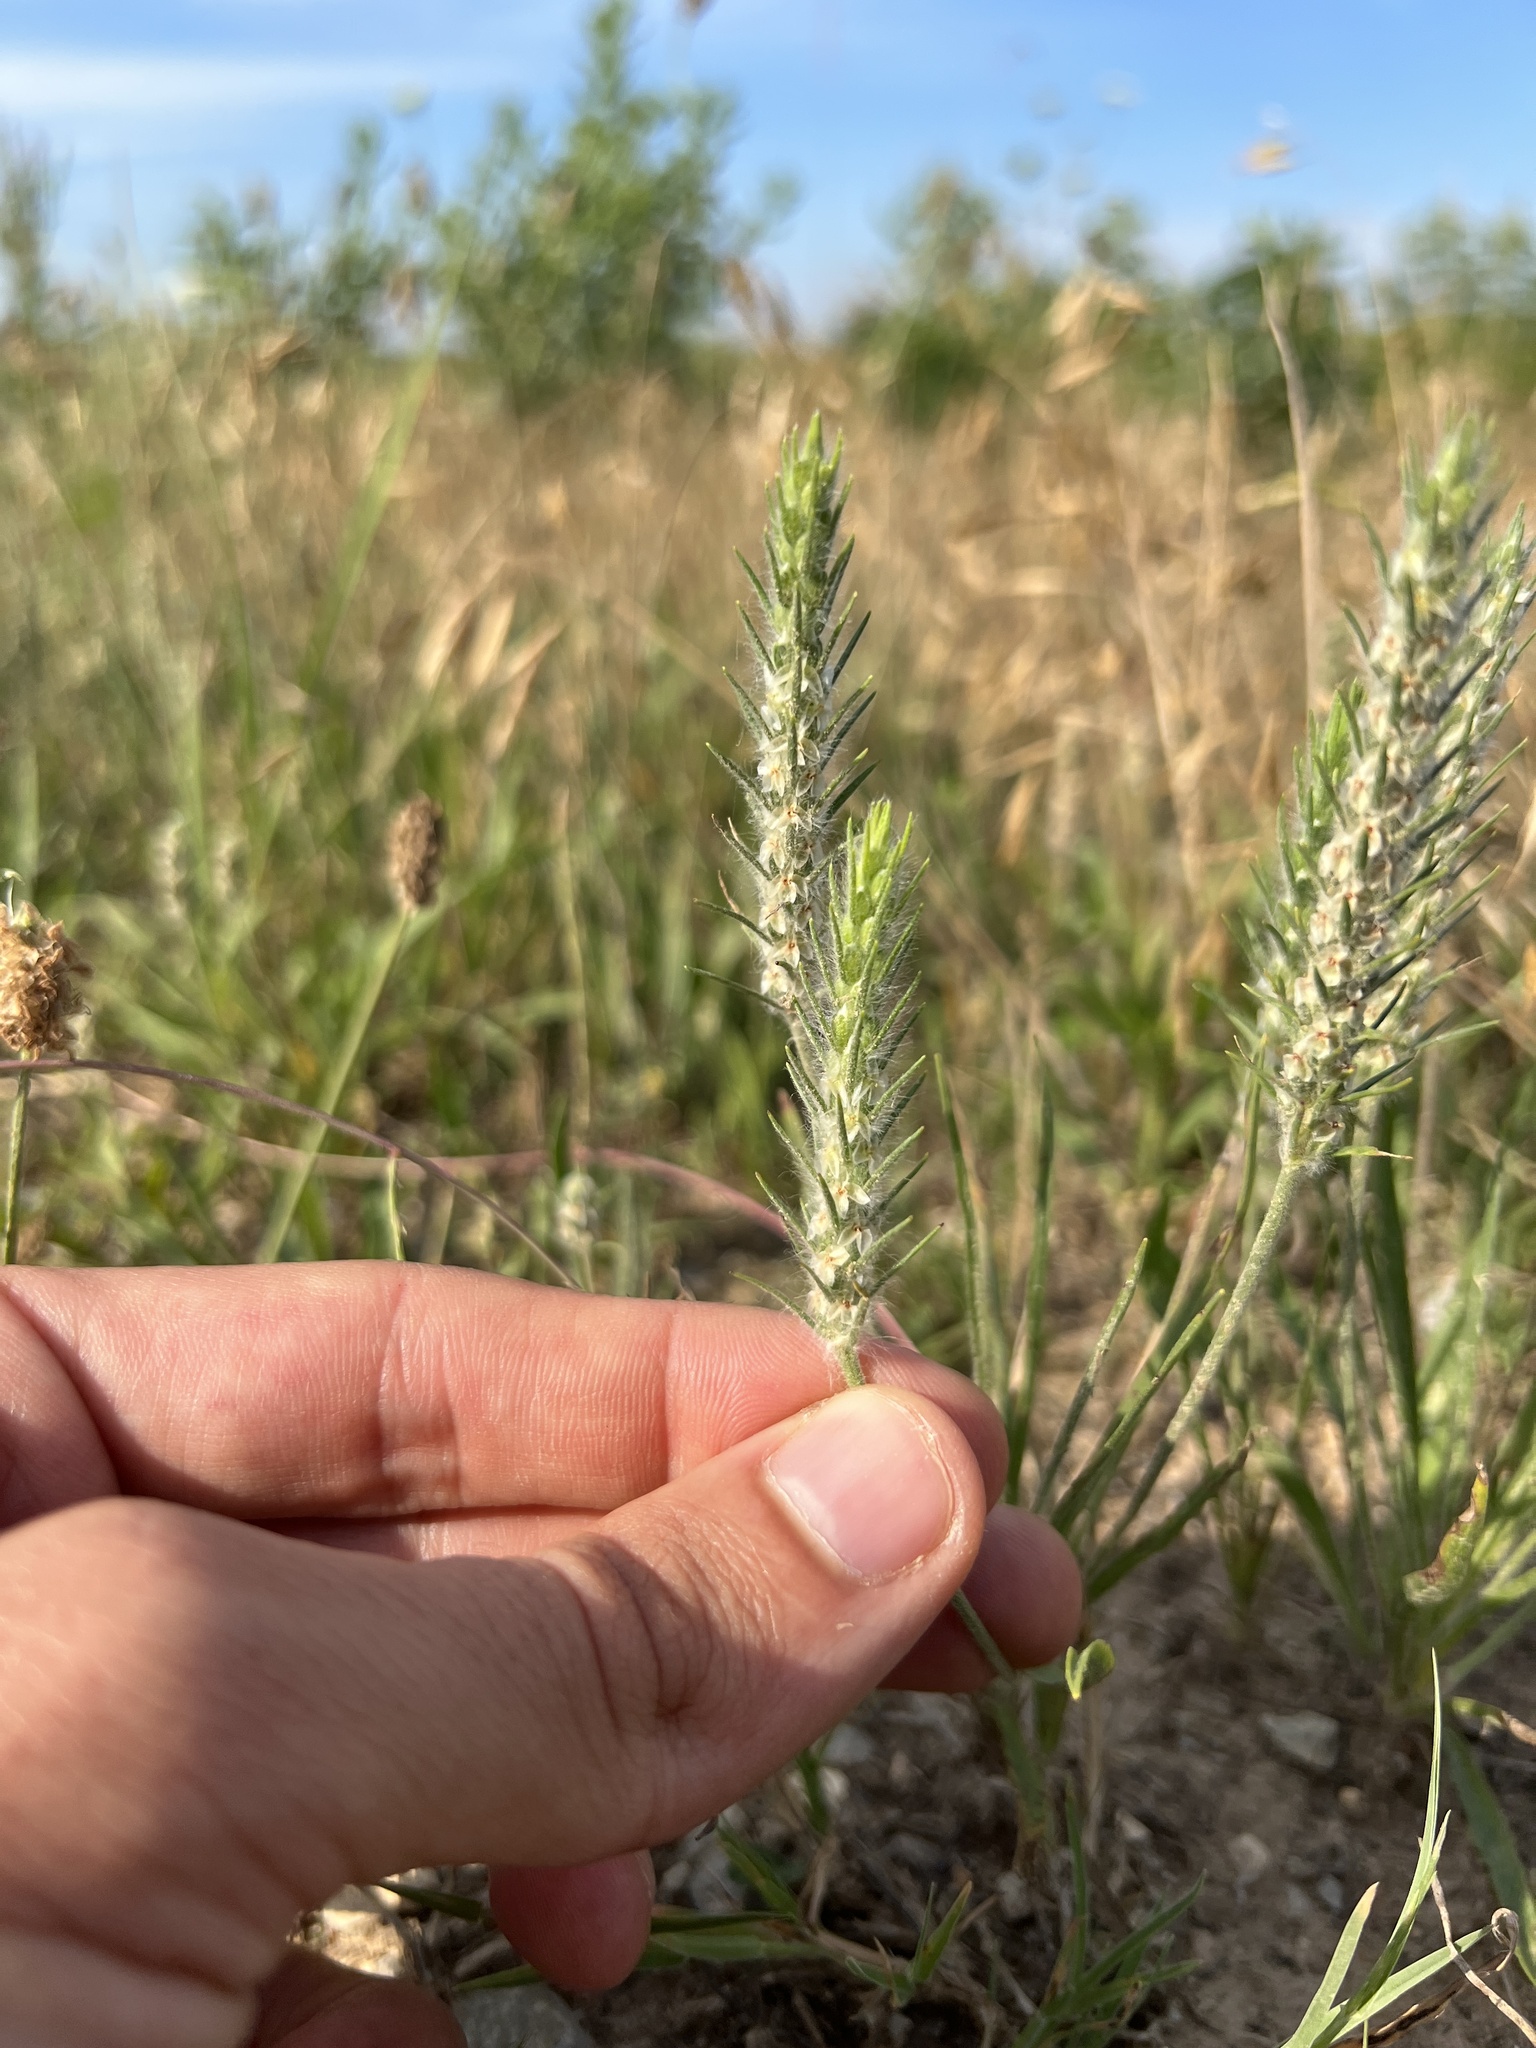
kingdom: Plantae
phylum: Tracheophyta
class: Magnoliopsida
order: Lamiales
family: Plantaginaceae
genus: Plantago
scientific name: Plantago aristata
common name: Bracted plantain
